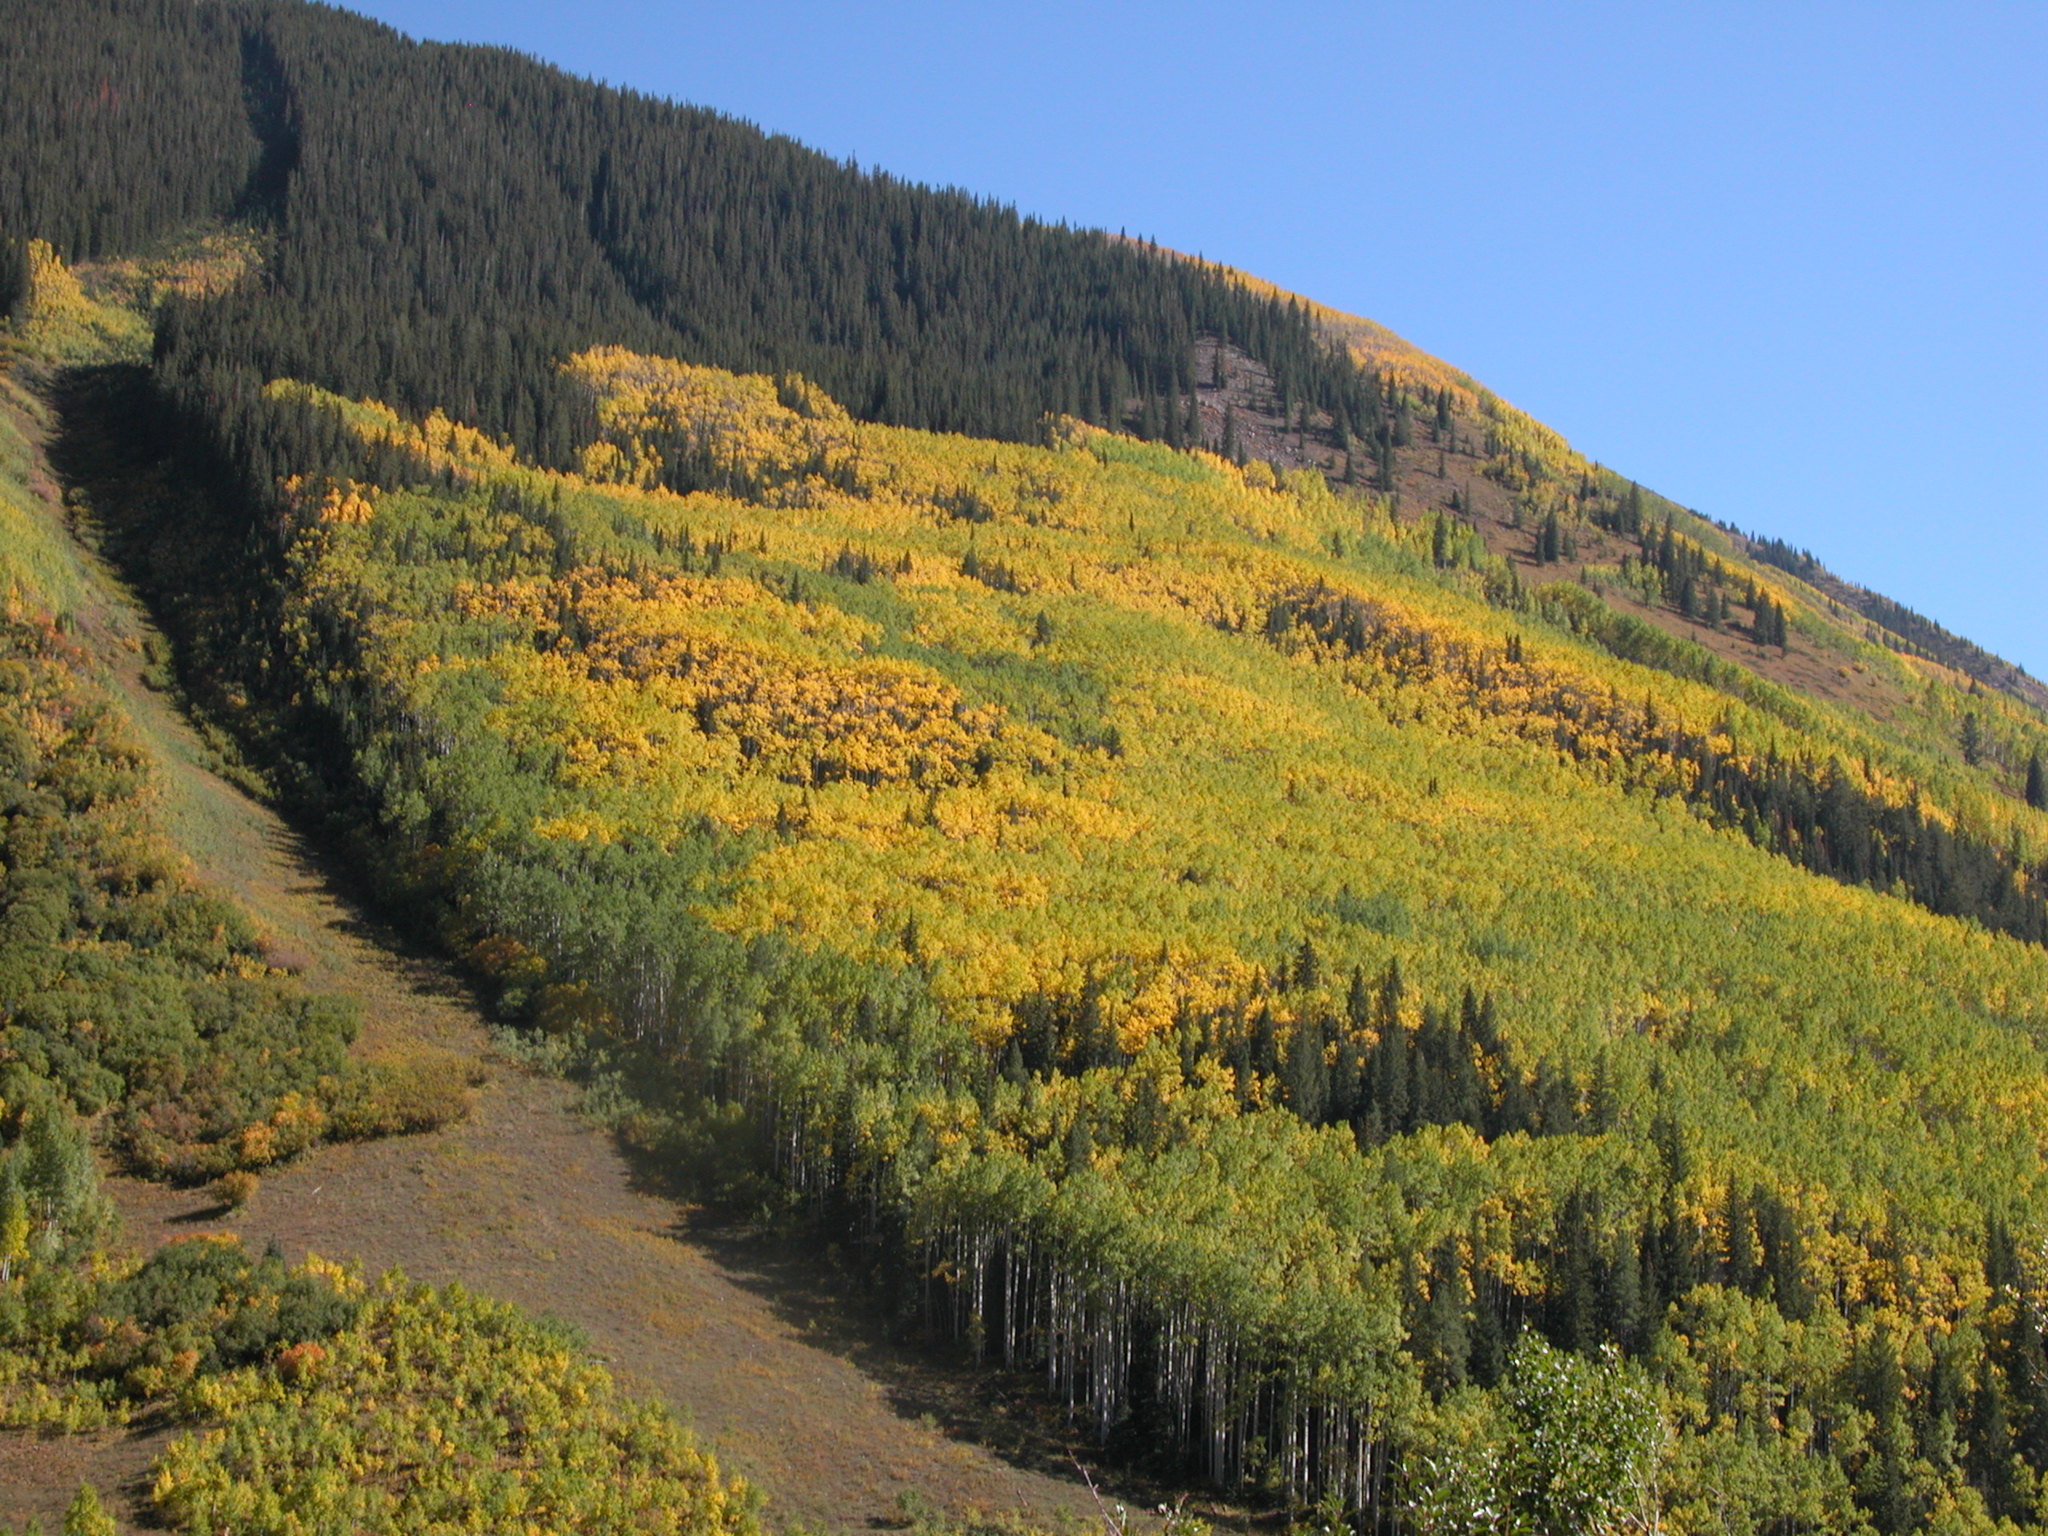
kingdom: Plantae
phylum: Tracheophyta
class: Magnoliopsida
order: Malpighiales
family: Salicaceae
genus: Populus
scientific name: Populus tremuloides
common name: Quaking aspen
